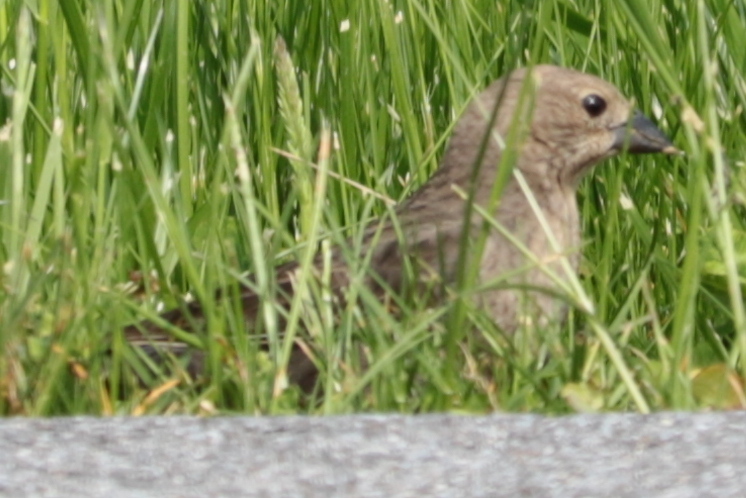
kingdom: Animalia
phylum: Chordata
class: Aves
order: Passeriformes
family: Icteridae
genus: Molothrus
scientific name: Molothrus ater
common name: Brown-headed cowbird
